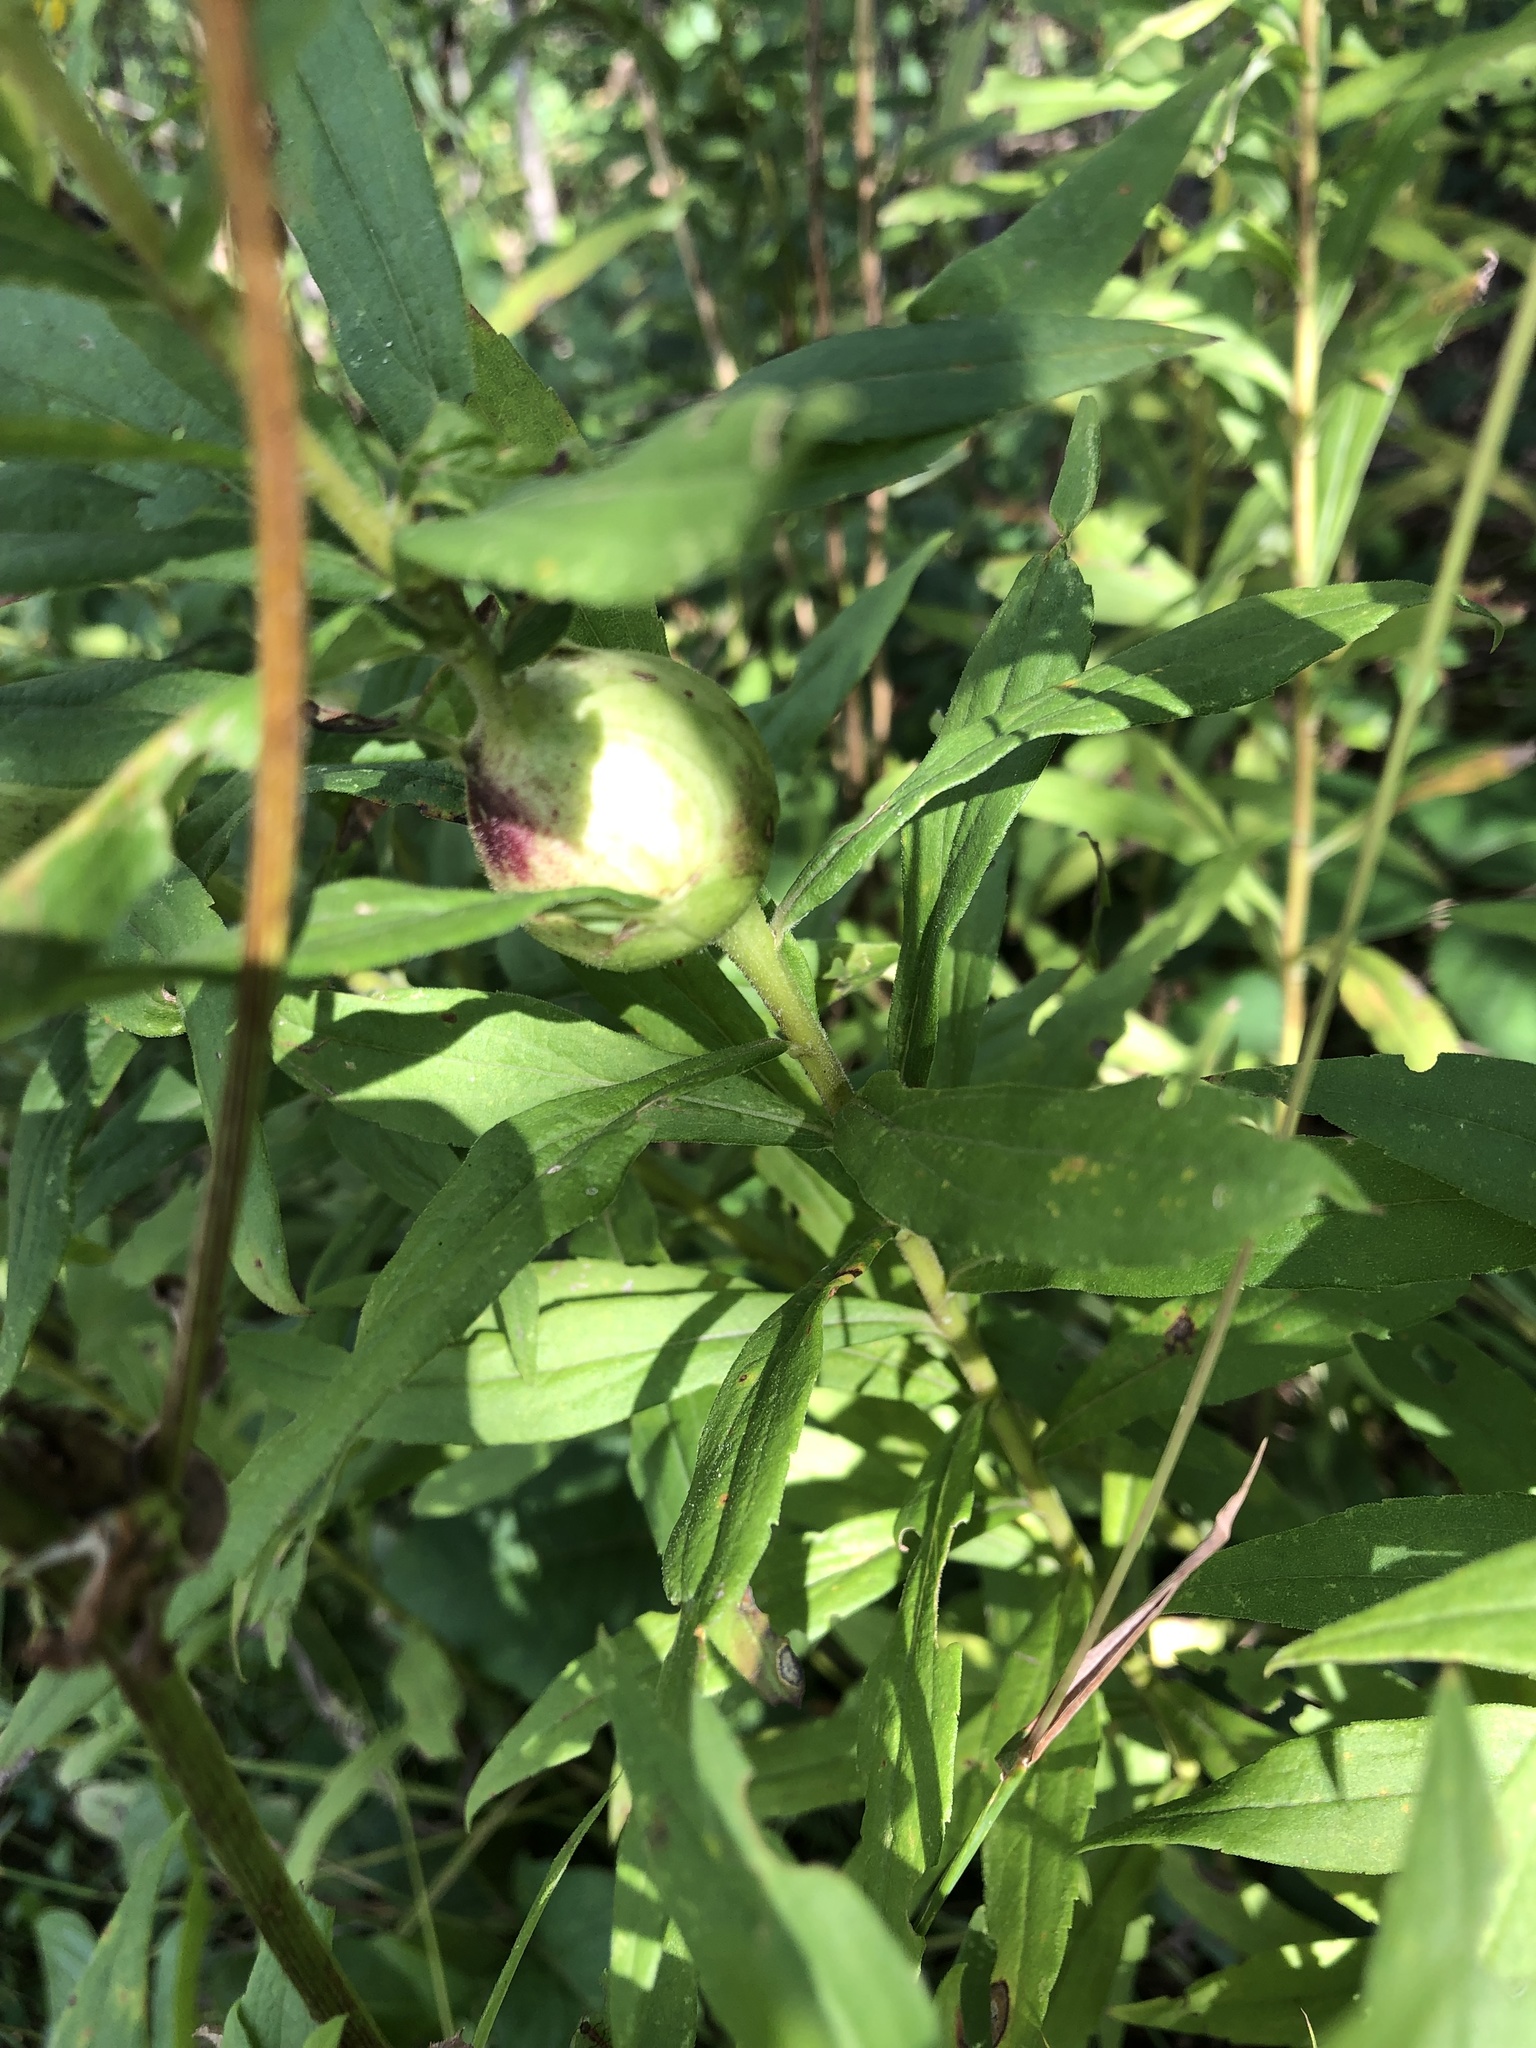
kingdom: Animalia
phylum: Arthropoda
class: Insecta
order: Diptera
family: Tephritidae
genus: Eurosta
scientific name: Eurosta solidaginis
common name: Goldenrod gall fly
